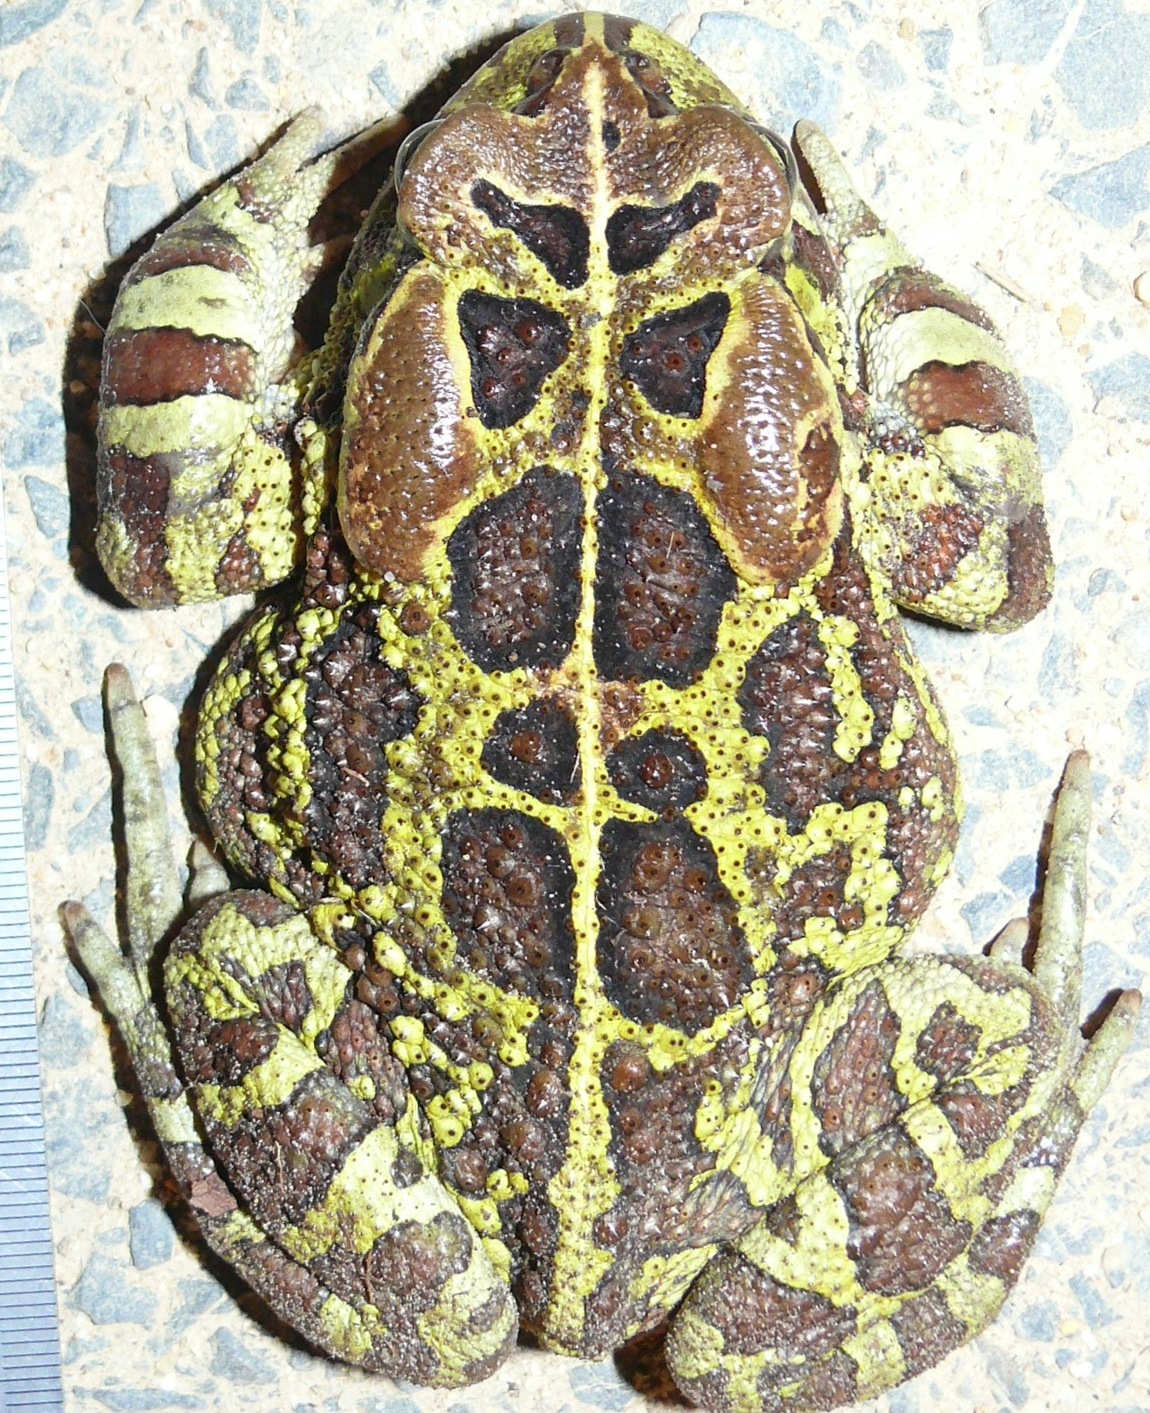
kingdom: Animalia
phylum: Chordata
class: Amphibia
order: Anura
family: Bufonidae
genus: Sclerophrys
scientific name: Sclerophrys pantherina
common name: Panther toad
